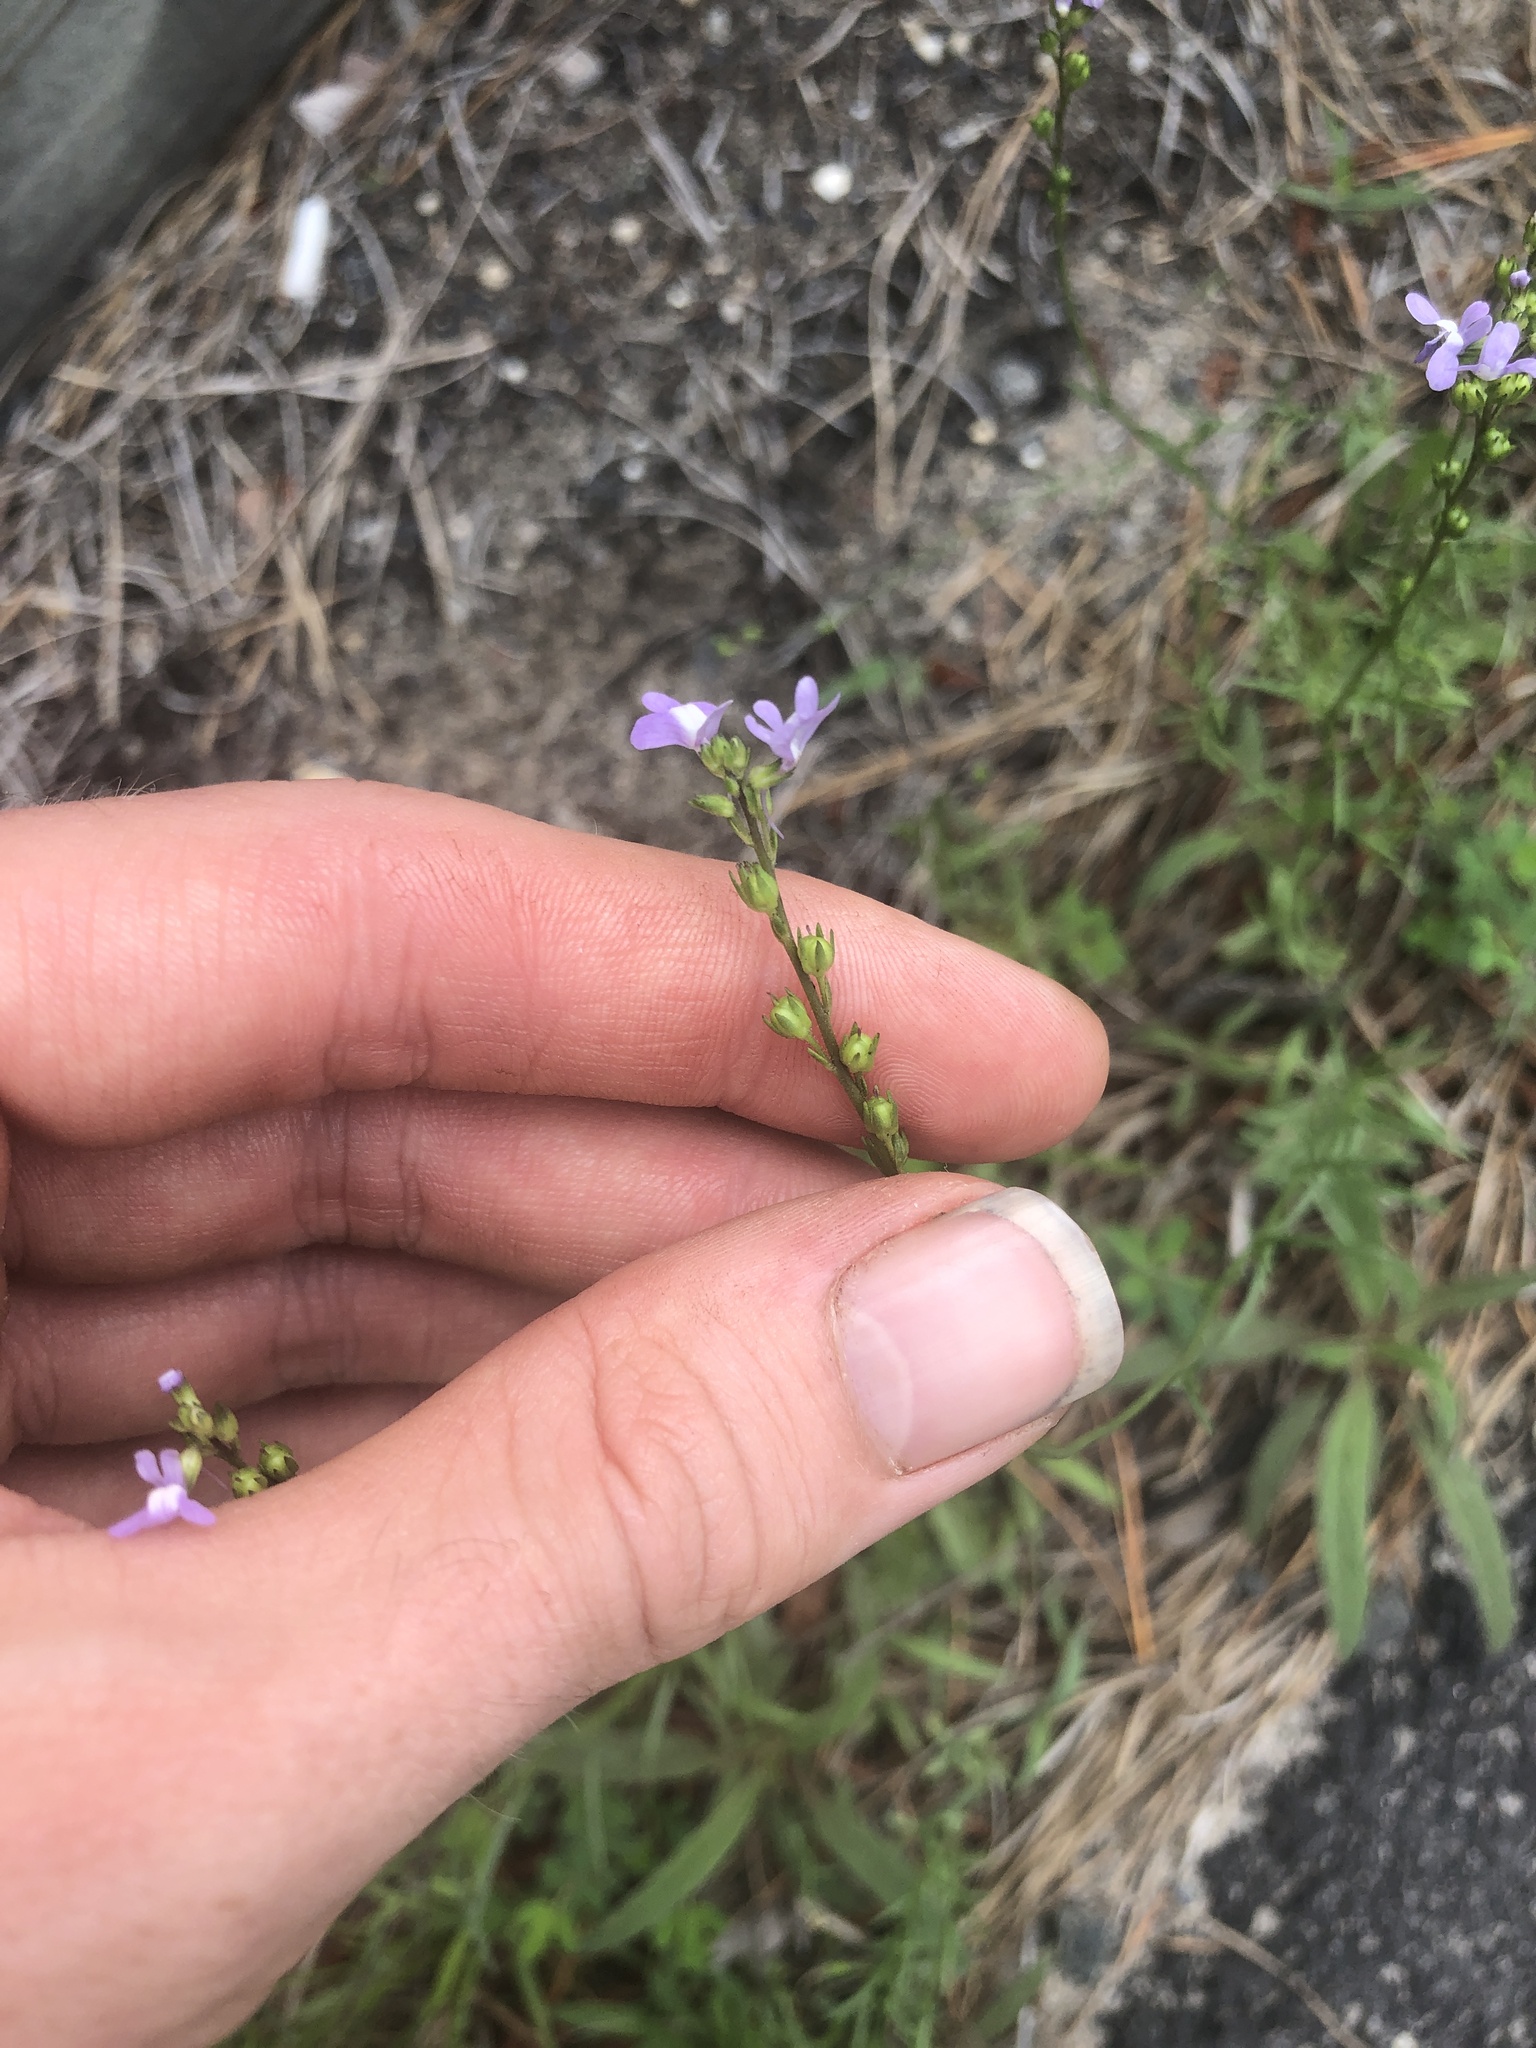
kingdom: Plantae
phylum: Tracheophyta
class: Magnoliopsida
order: Lamiales
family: Plantaginaceae
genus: Nuttallanthus
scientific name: Nuttallanthus canadensis
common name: Blue toadflax
